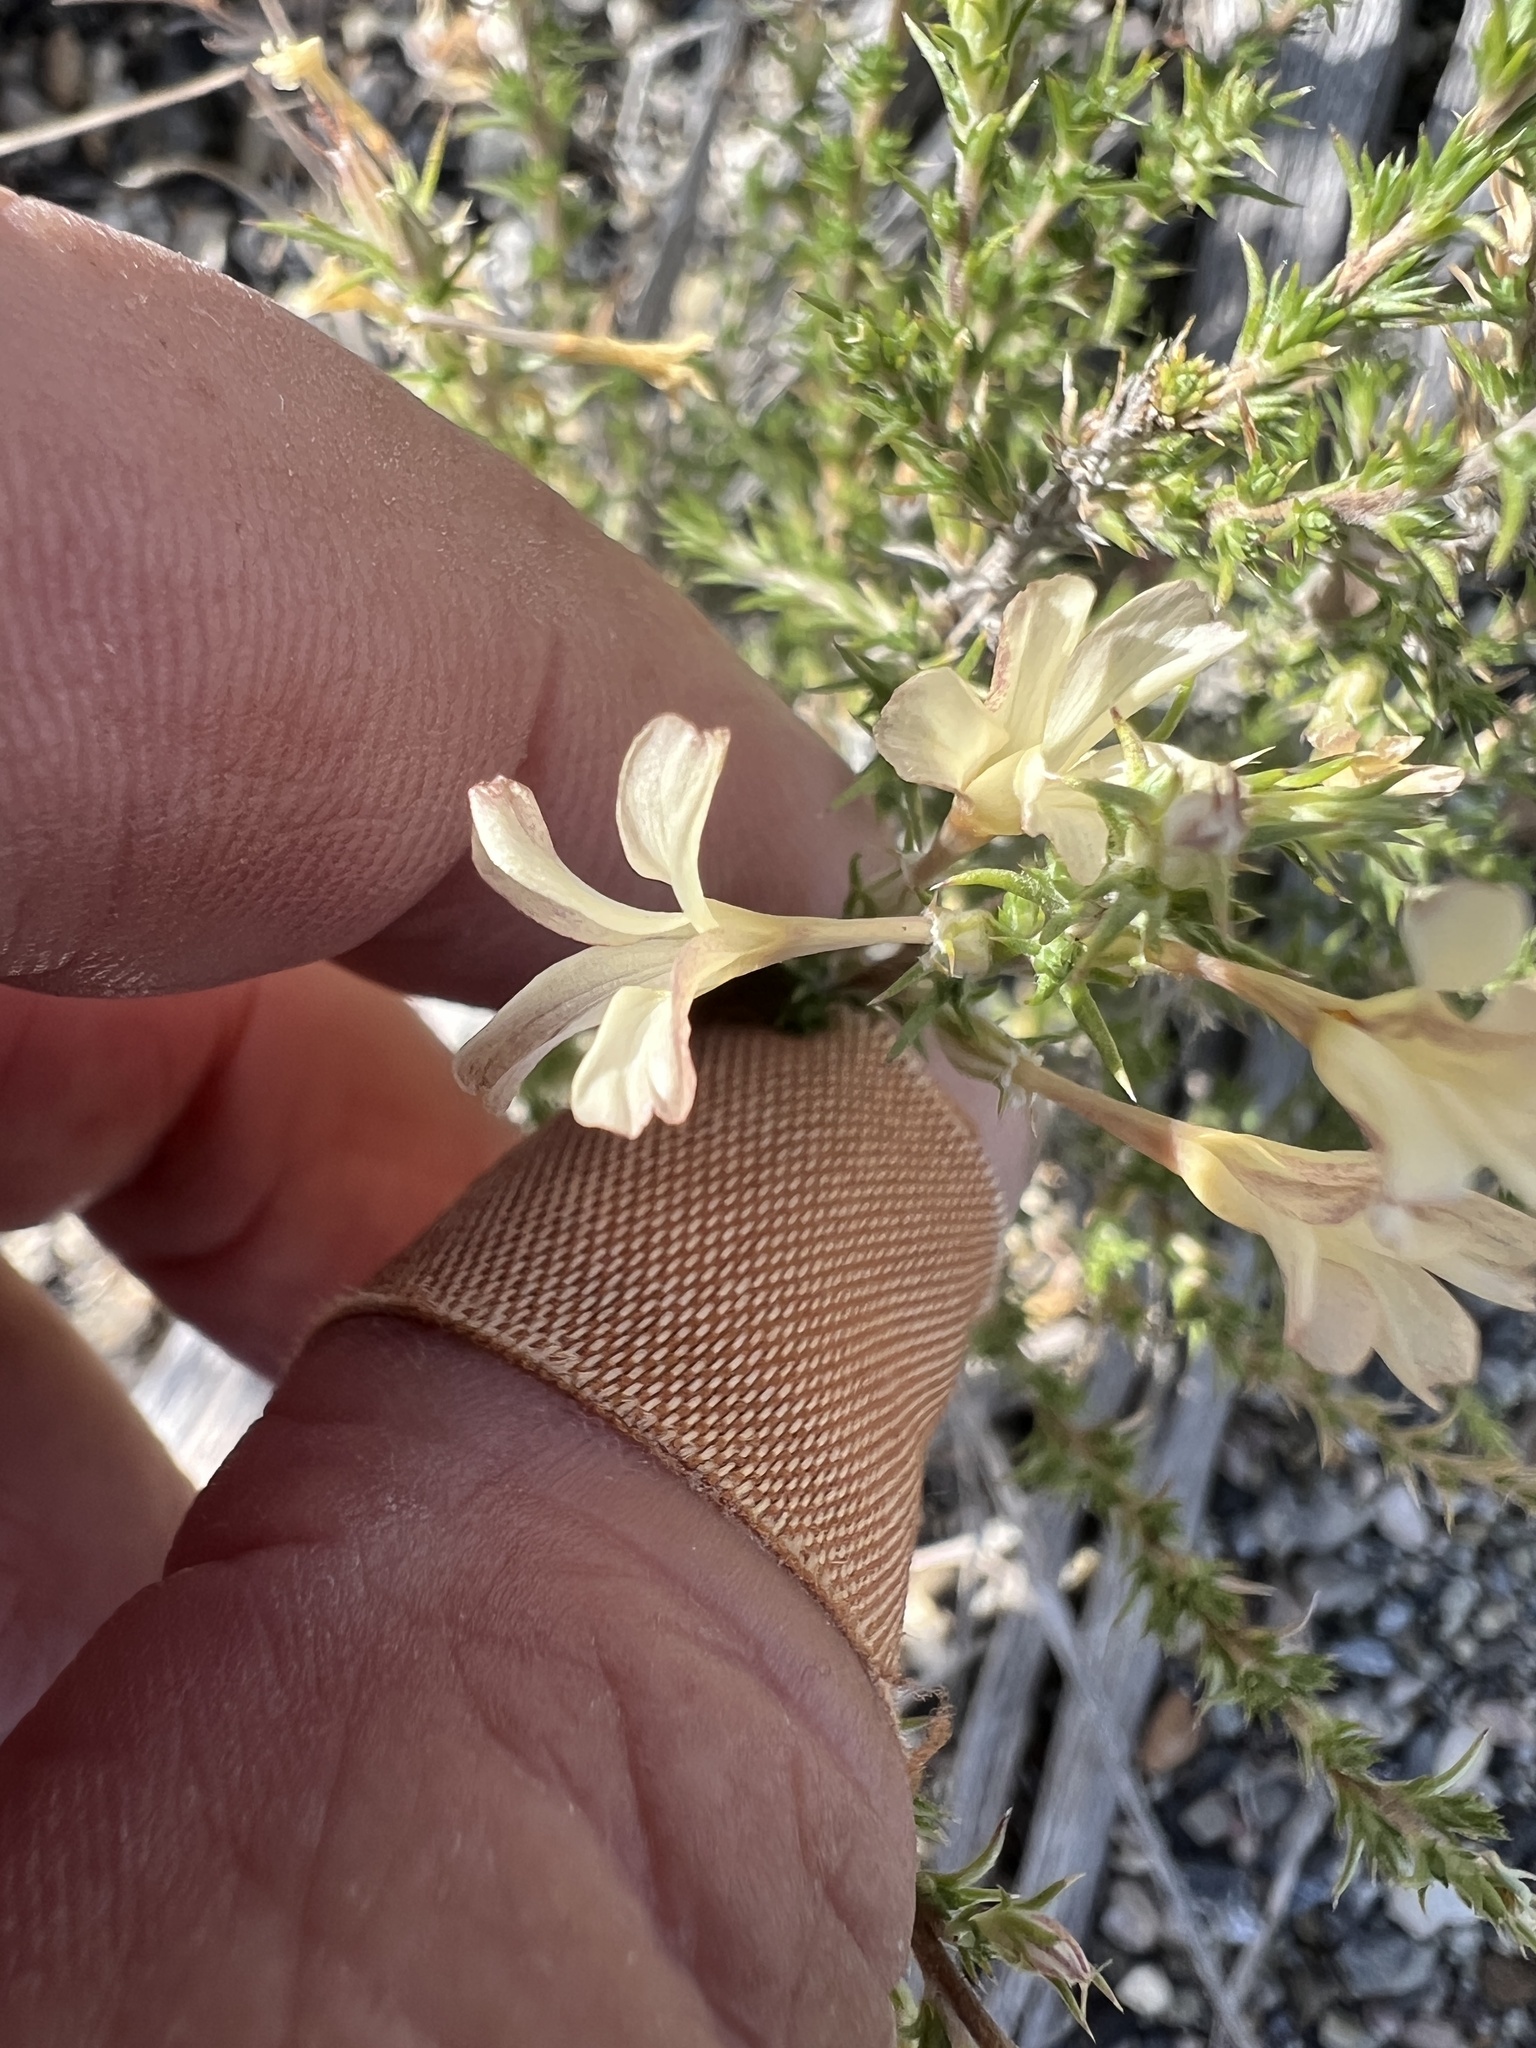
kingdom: Plantae
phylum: Tracheophyta
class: Magnoliopsida
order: Ericales
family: Polemoniaceae
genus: Linanthus
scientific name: Linanthus pungens
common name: Granite prickly phlox
